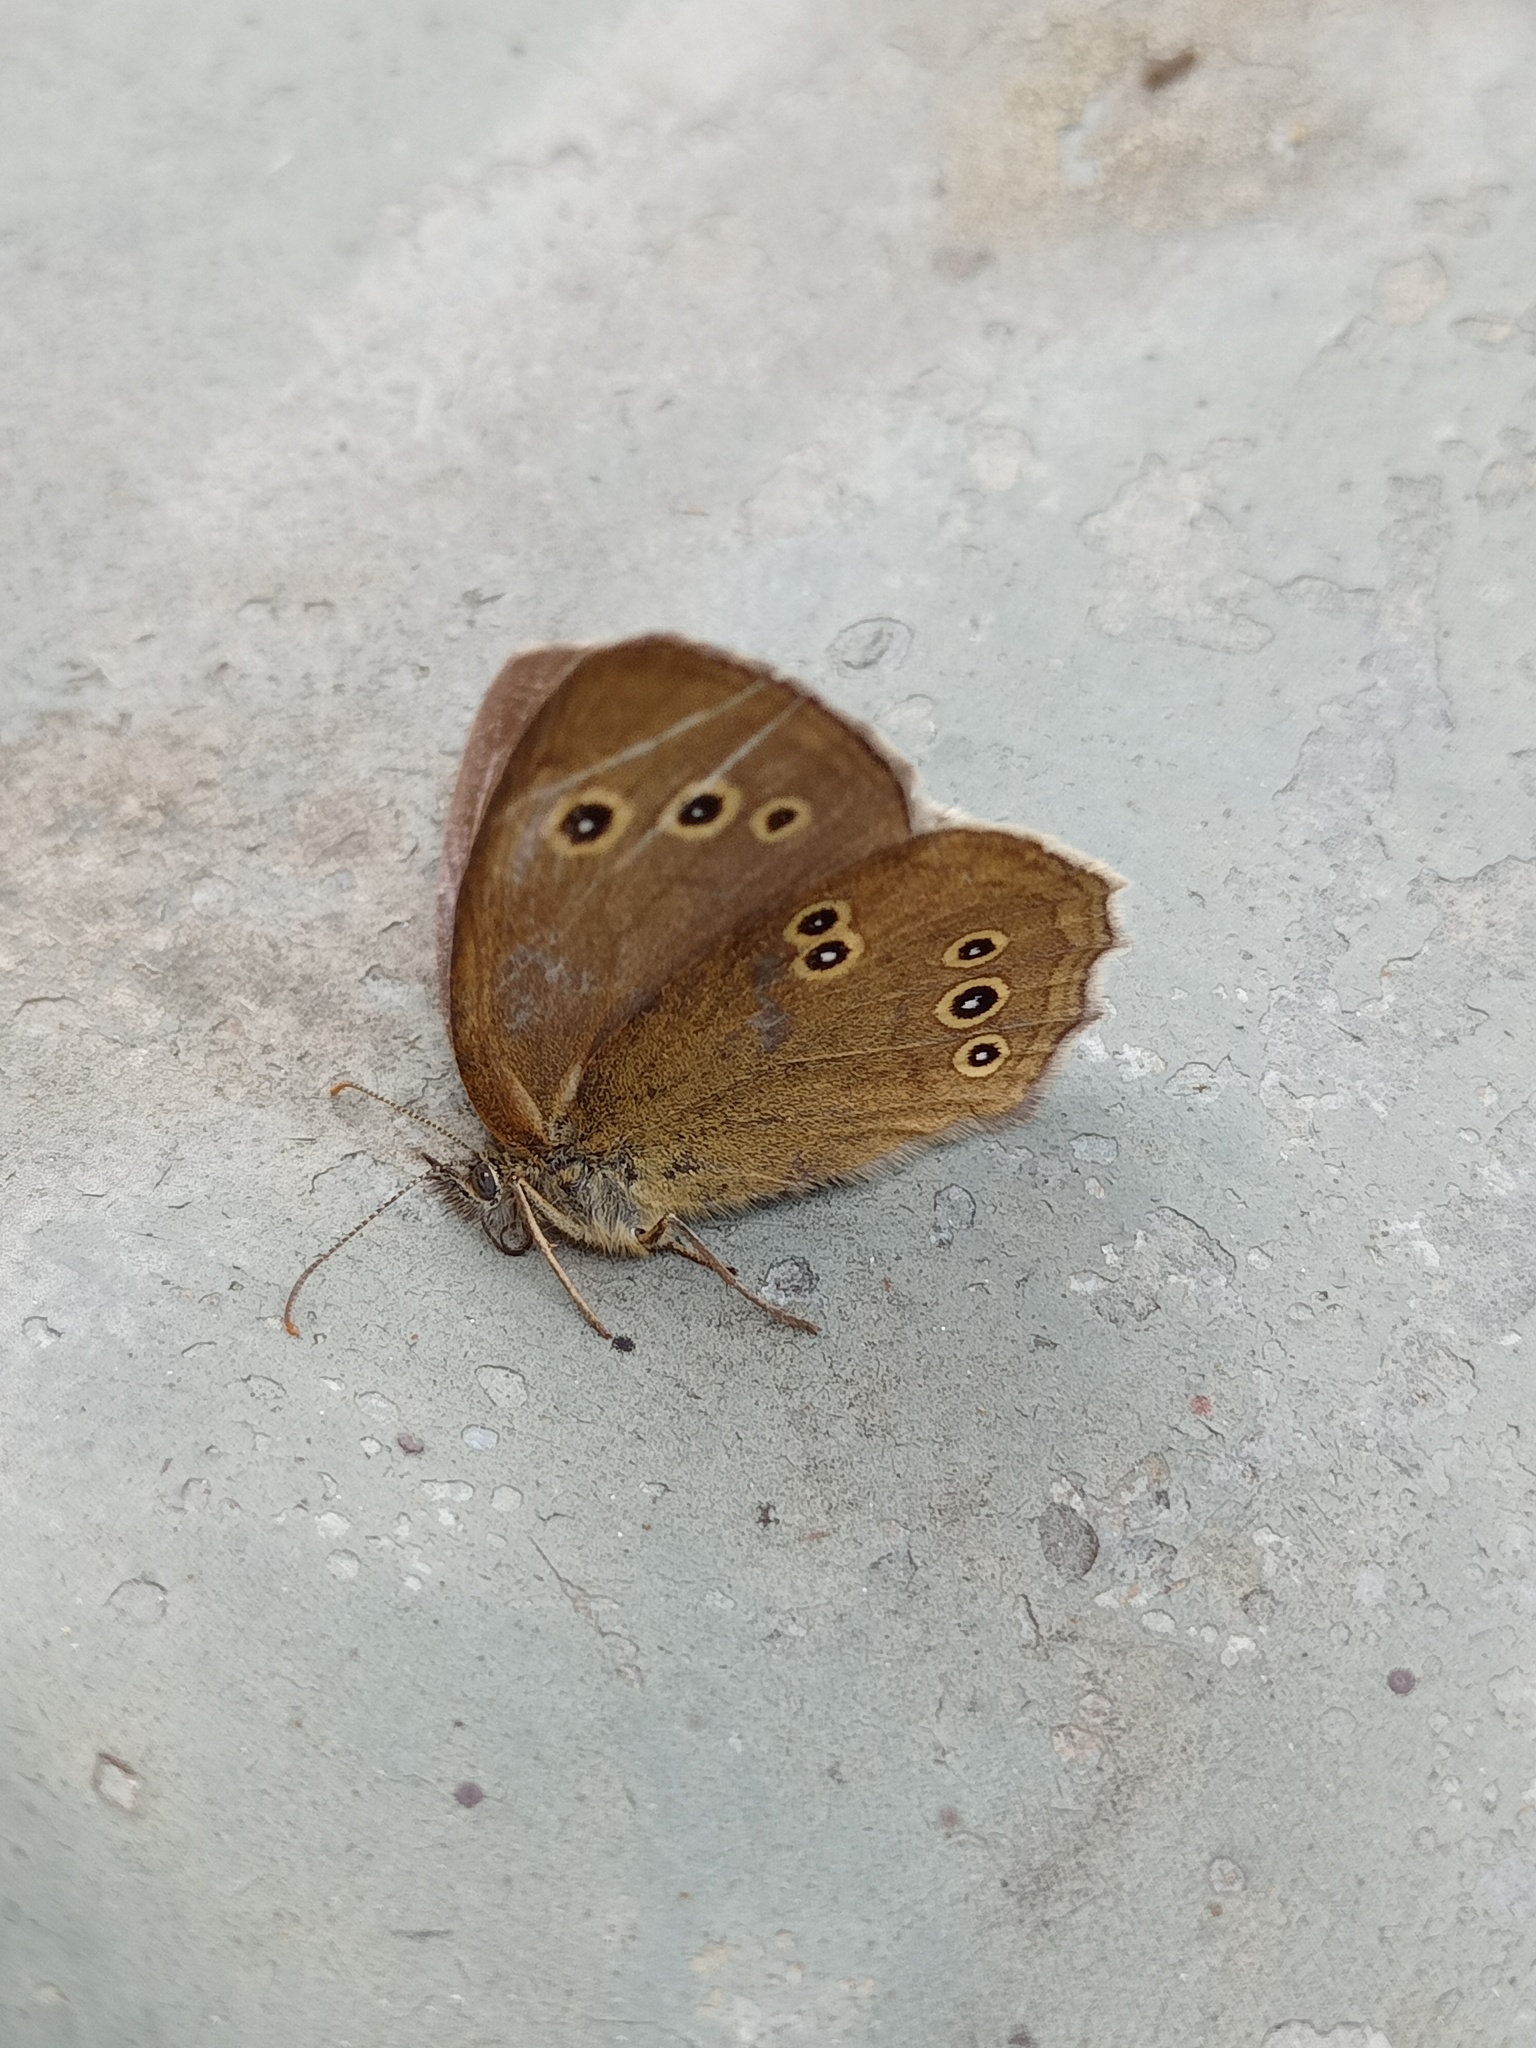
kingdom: Animalia
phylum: Arthropoda
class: Insecta
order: Lepidoptera
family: Nymphalidae
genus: Aphantopus
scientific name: Aphantopus hyperantus
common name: Ringlet
